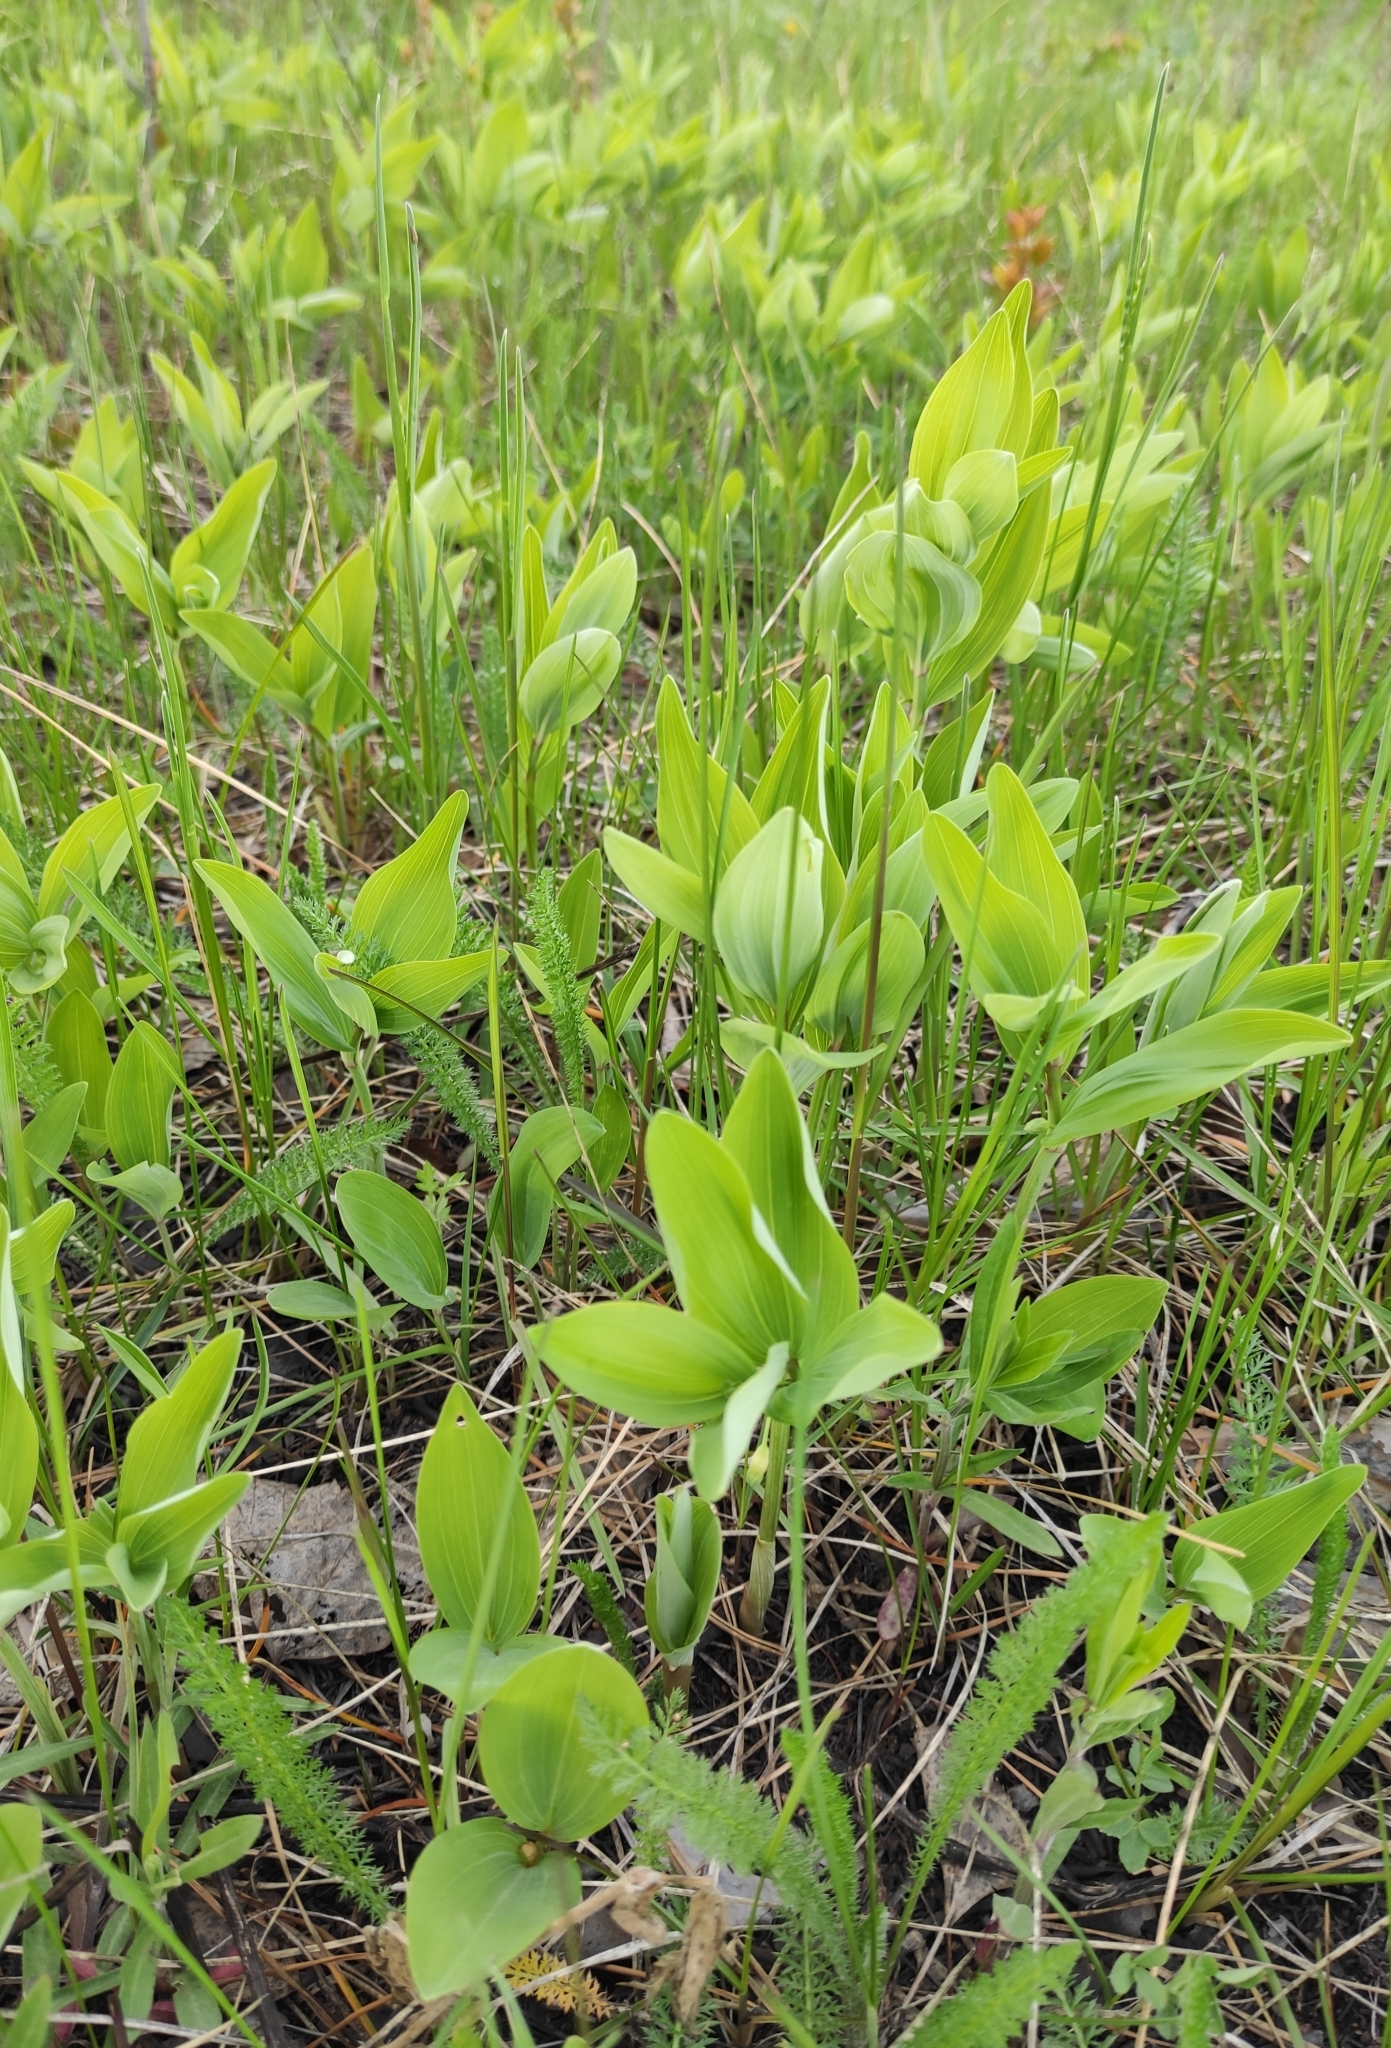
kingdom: Plantae
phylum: Tracheophyta
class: Liliopsida
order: Asparagales
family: Asparagaceae
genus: Polygonatum
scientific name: Polygonatum odoratum
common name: Angular solomon's-seal
